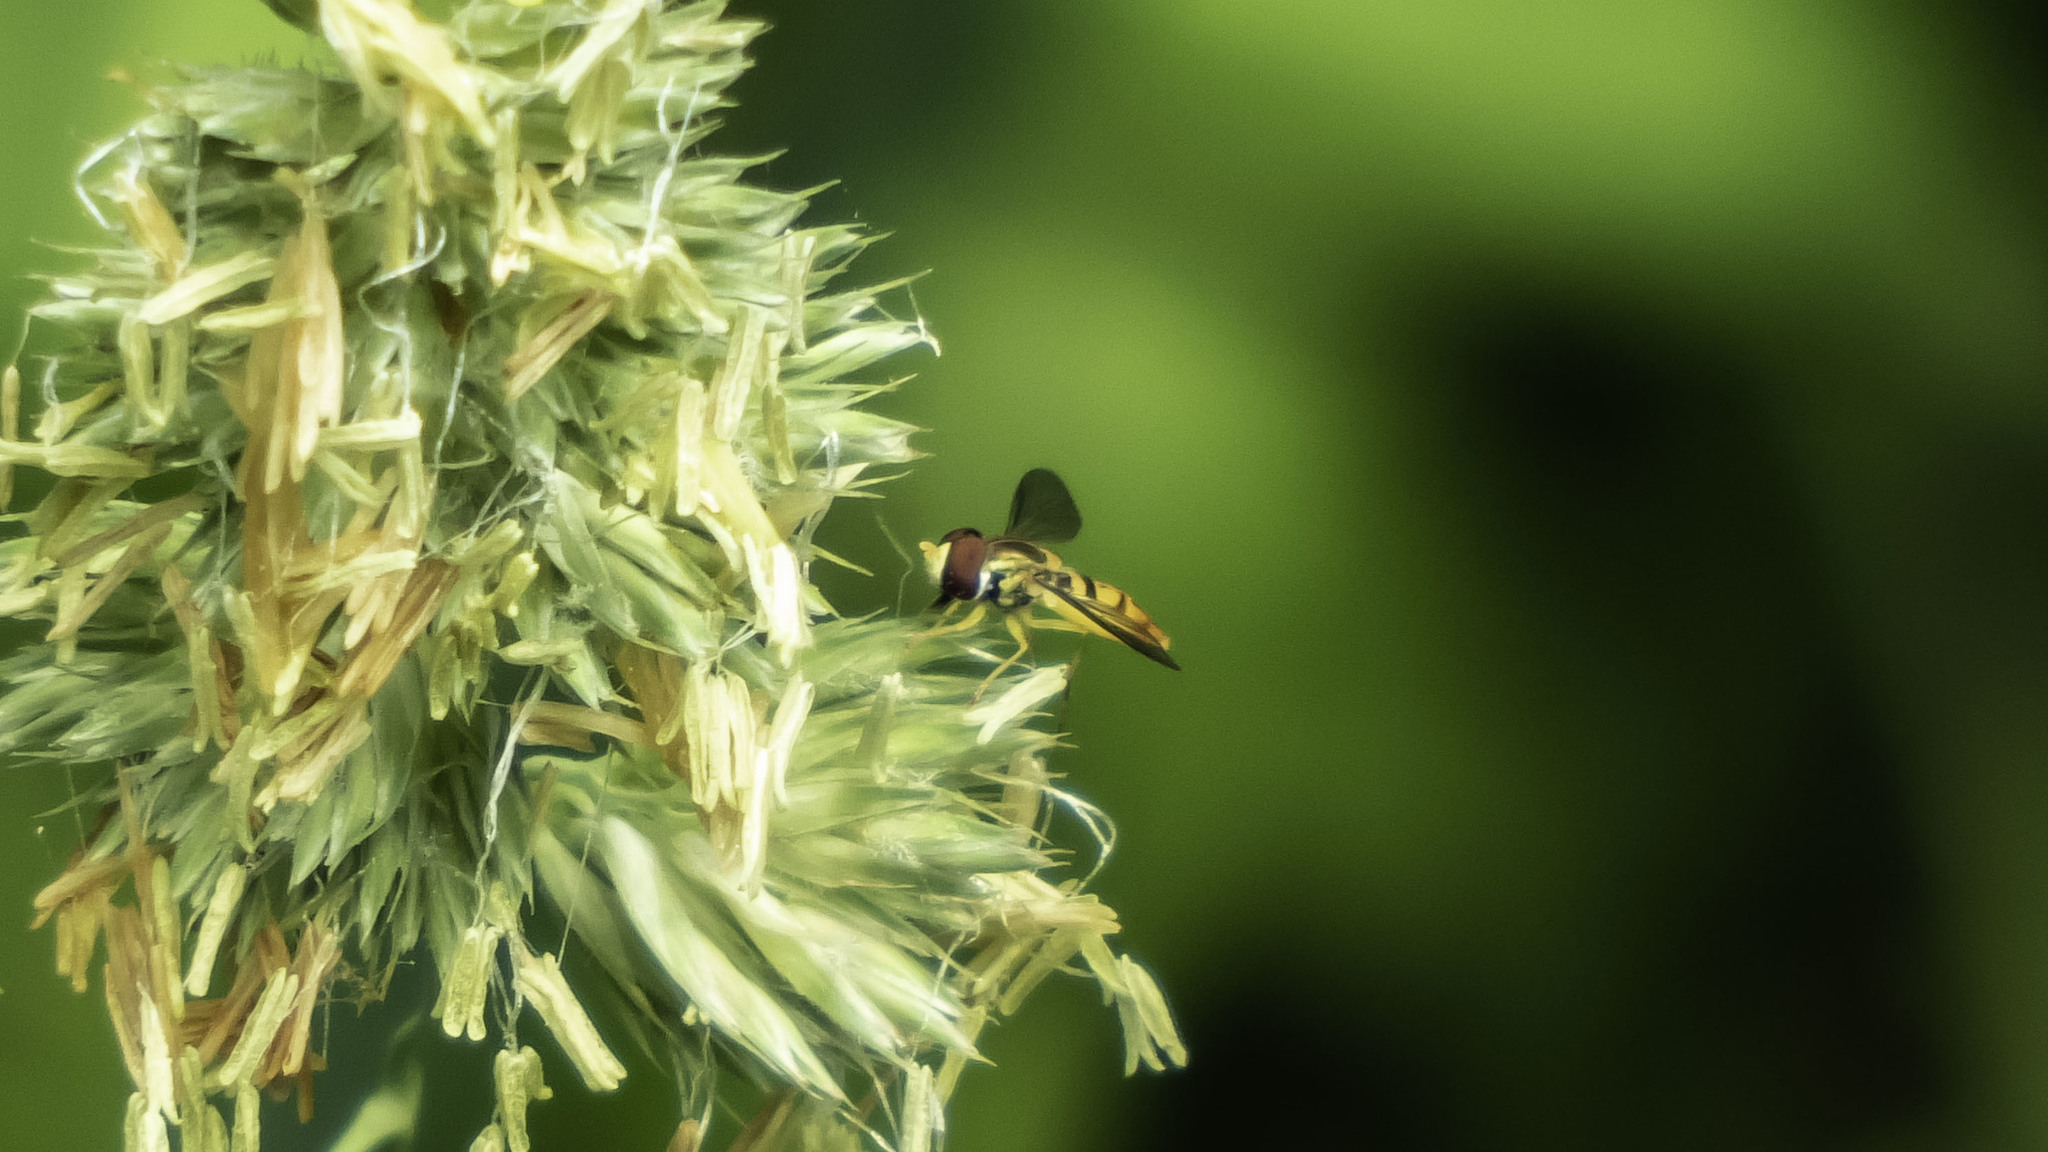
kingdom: Animalia
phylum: Arthropoda
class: Insecta
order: Diptera
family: Syrphidae
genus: Toxomerus
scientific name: Toxomerus marginatus
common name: Syrphid fly
